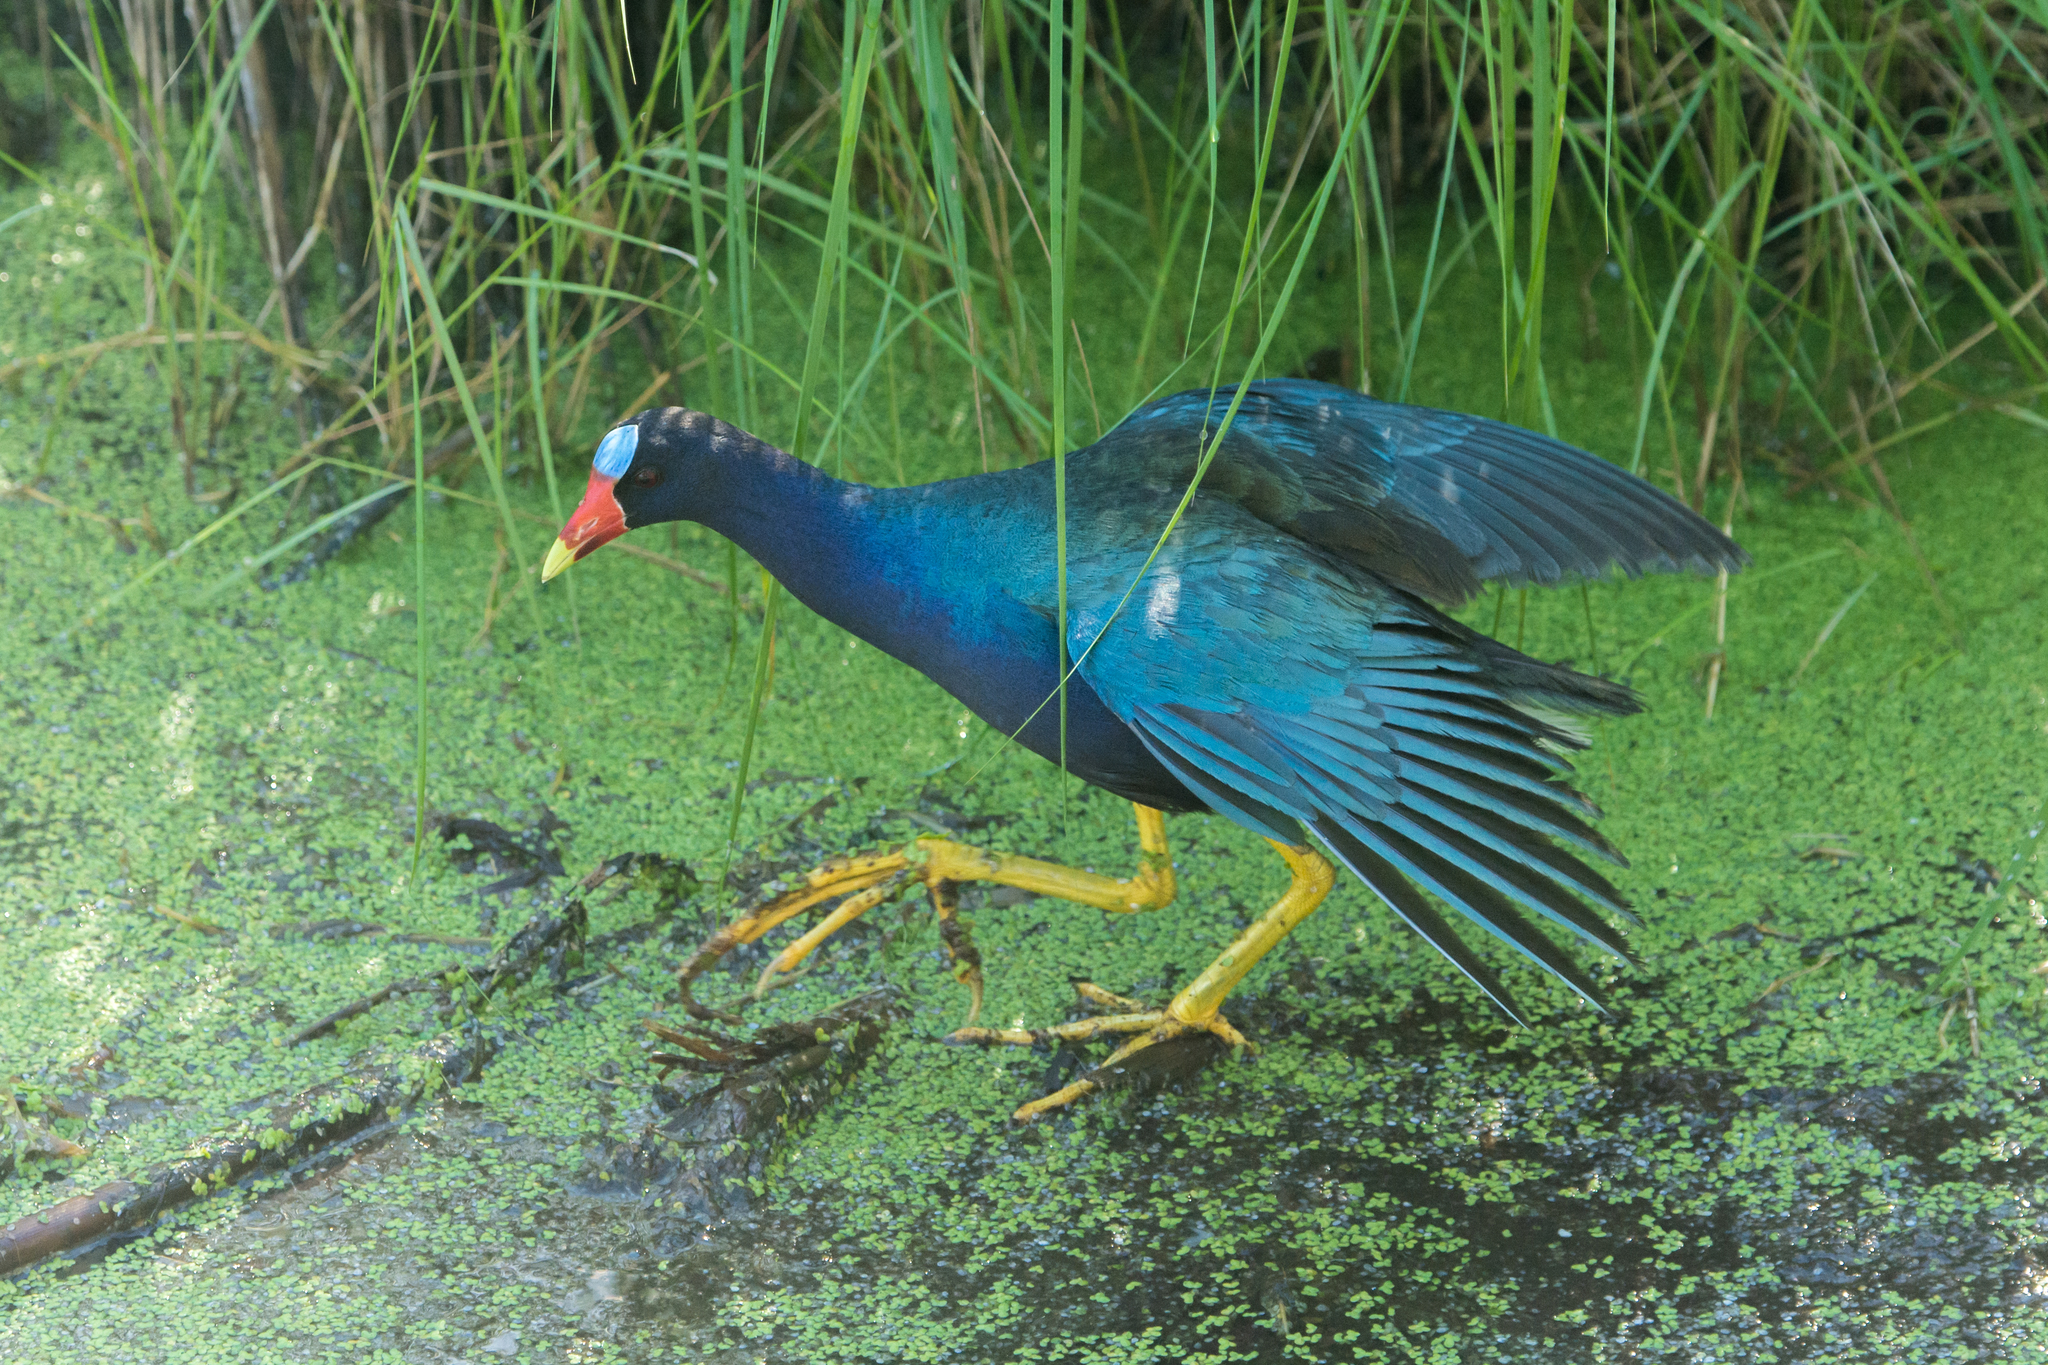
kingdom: Animalia
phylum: Chordata
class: Aves
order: Gruiformes
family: Rallidae
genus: Porphyrio
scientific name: Porphyrio martinica
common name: Purple gallinule
